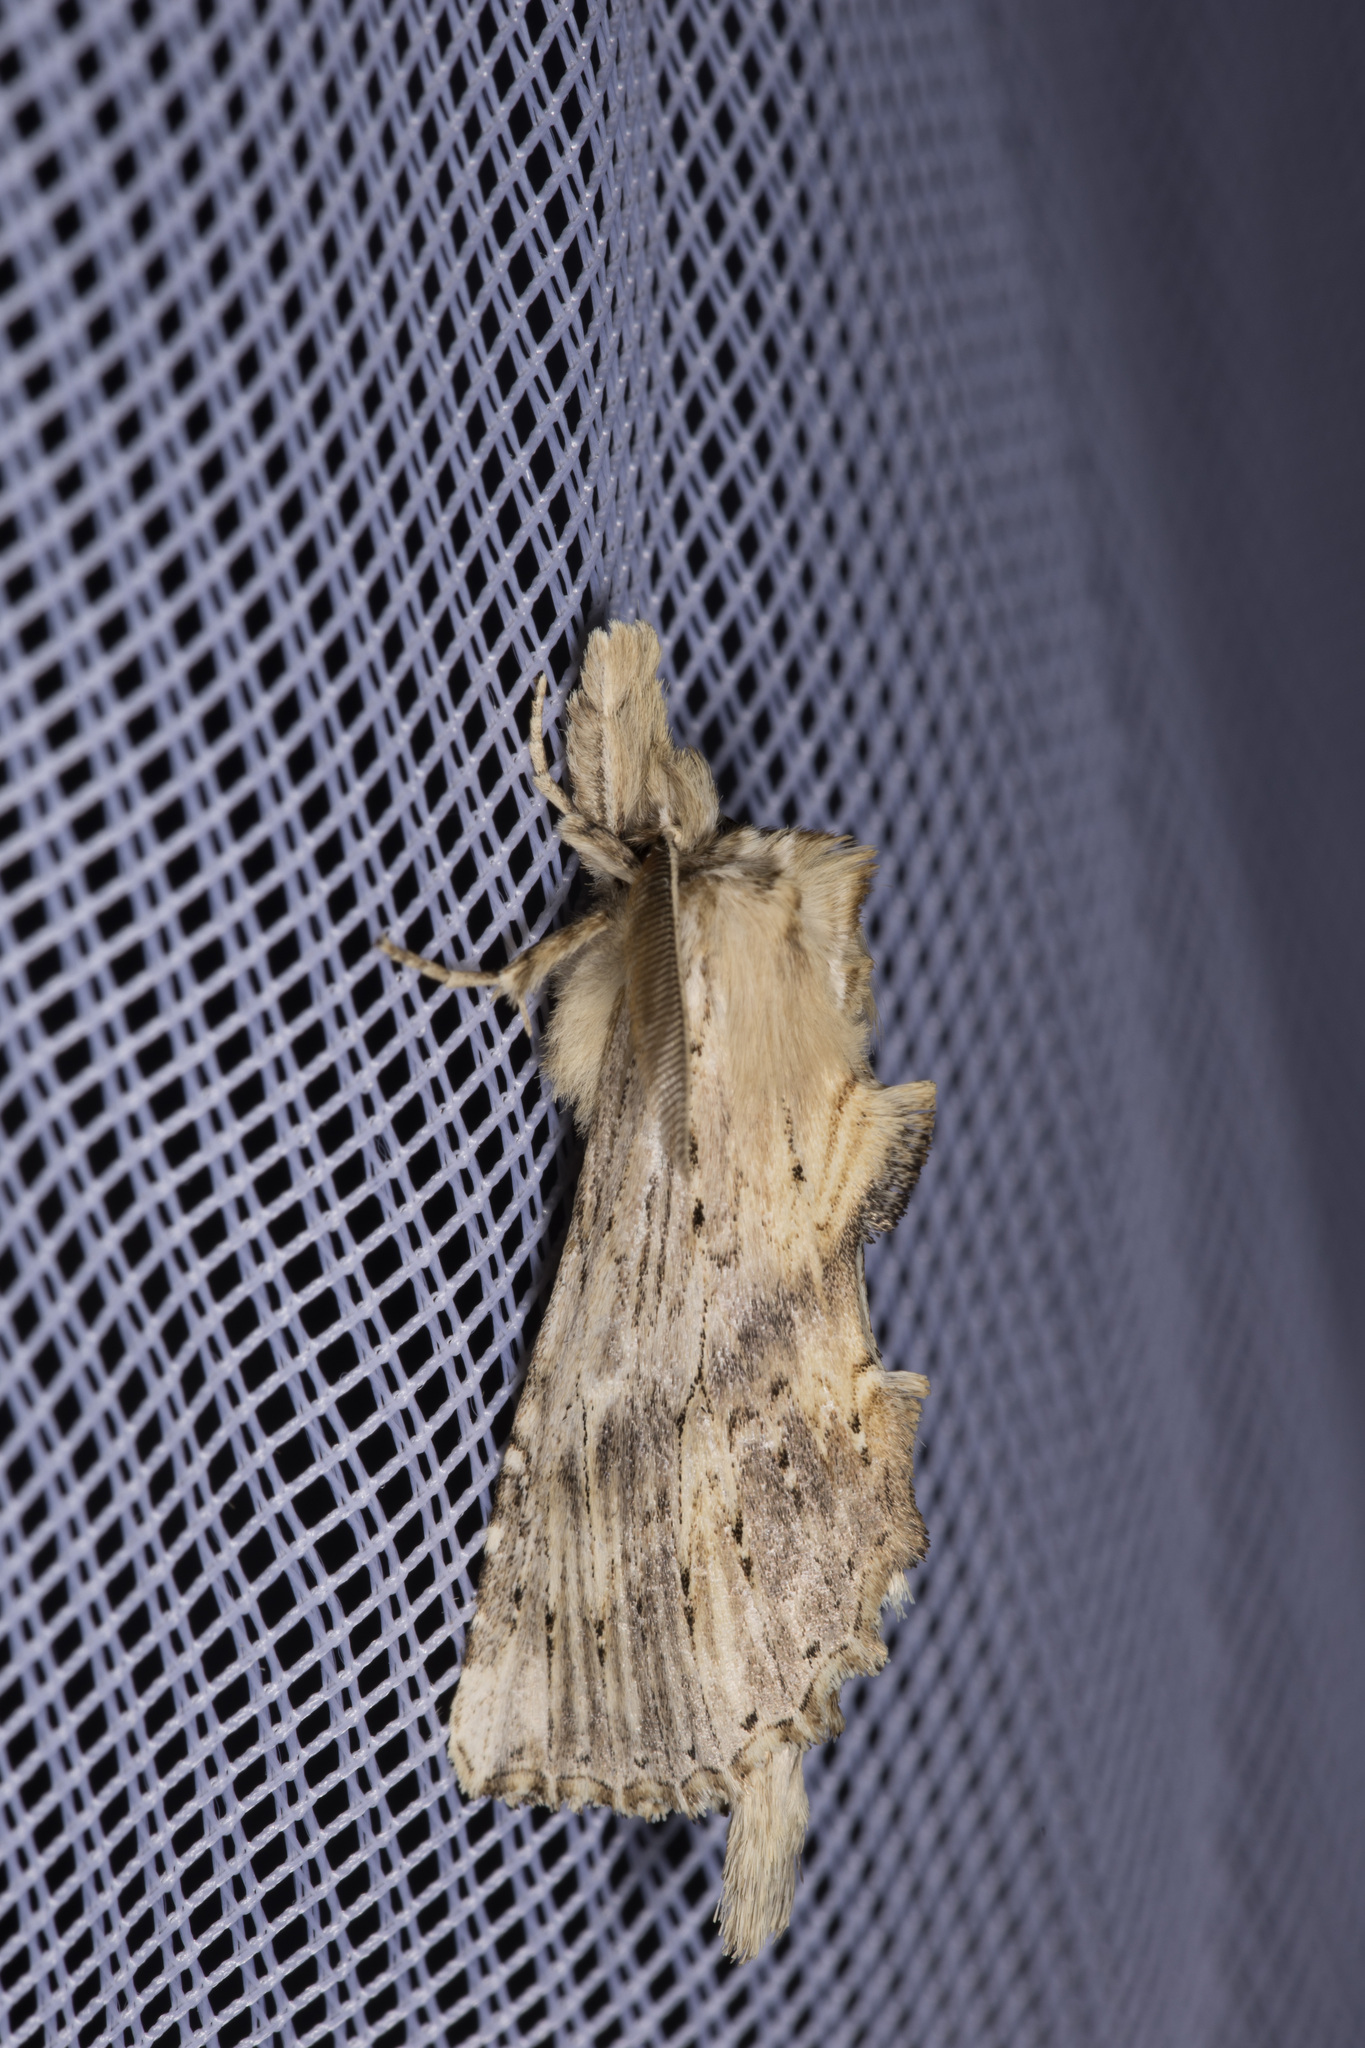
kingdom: Animalia
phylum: Arthropoda
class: Insecta
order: Lepidoptera
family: Notodontidae
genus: Pterostoma
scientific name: Pterostoma palpina
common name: Pale prominent
